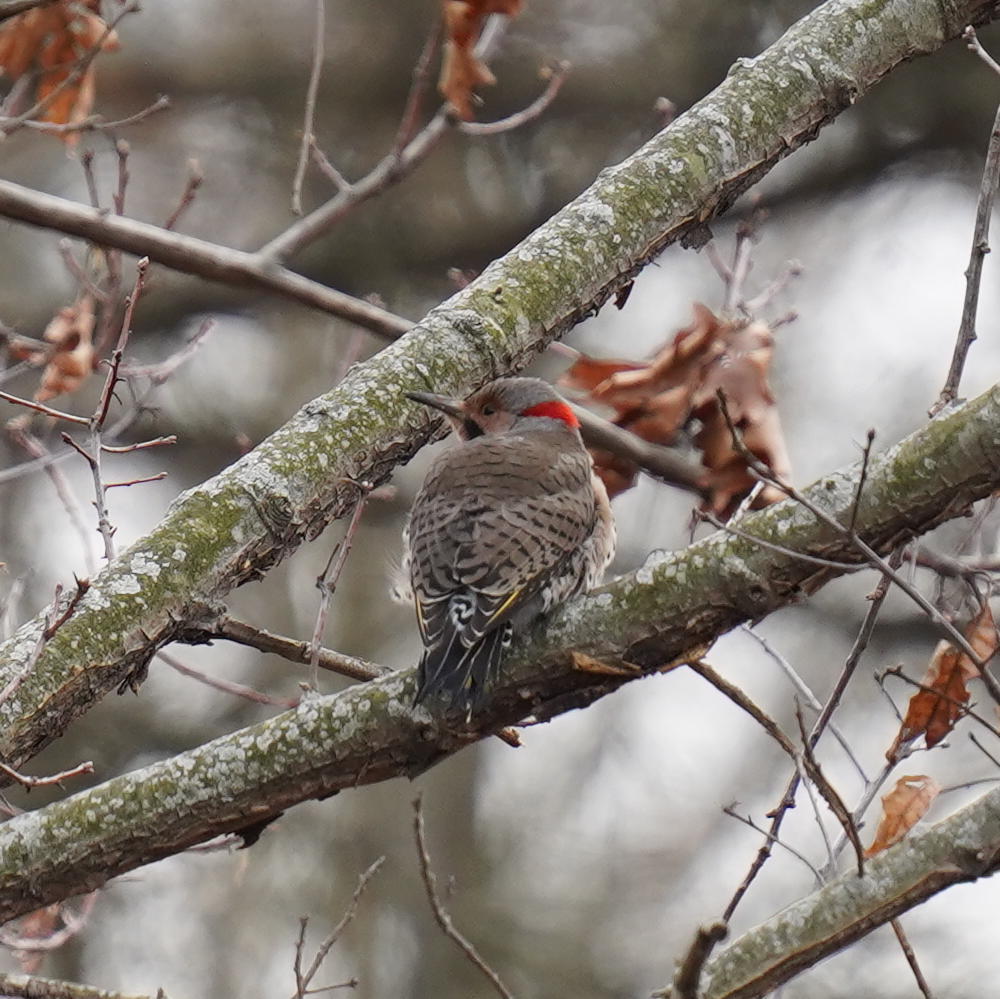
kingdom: Animalia
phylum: Chordata
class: Aves
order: Piciformes
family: Picidae
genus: Colaptes
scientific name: Colaptes auratus
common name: Northern flicker
